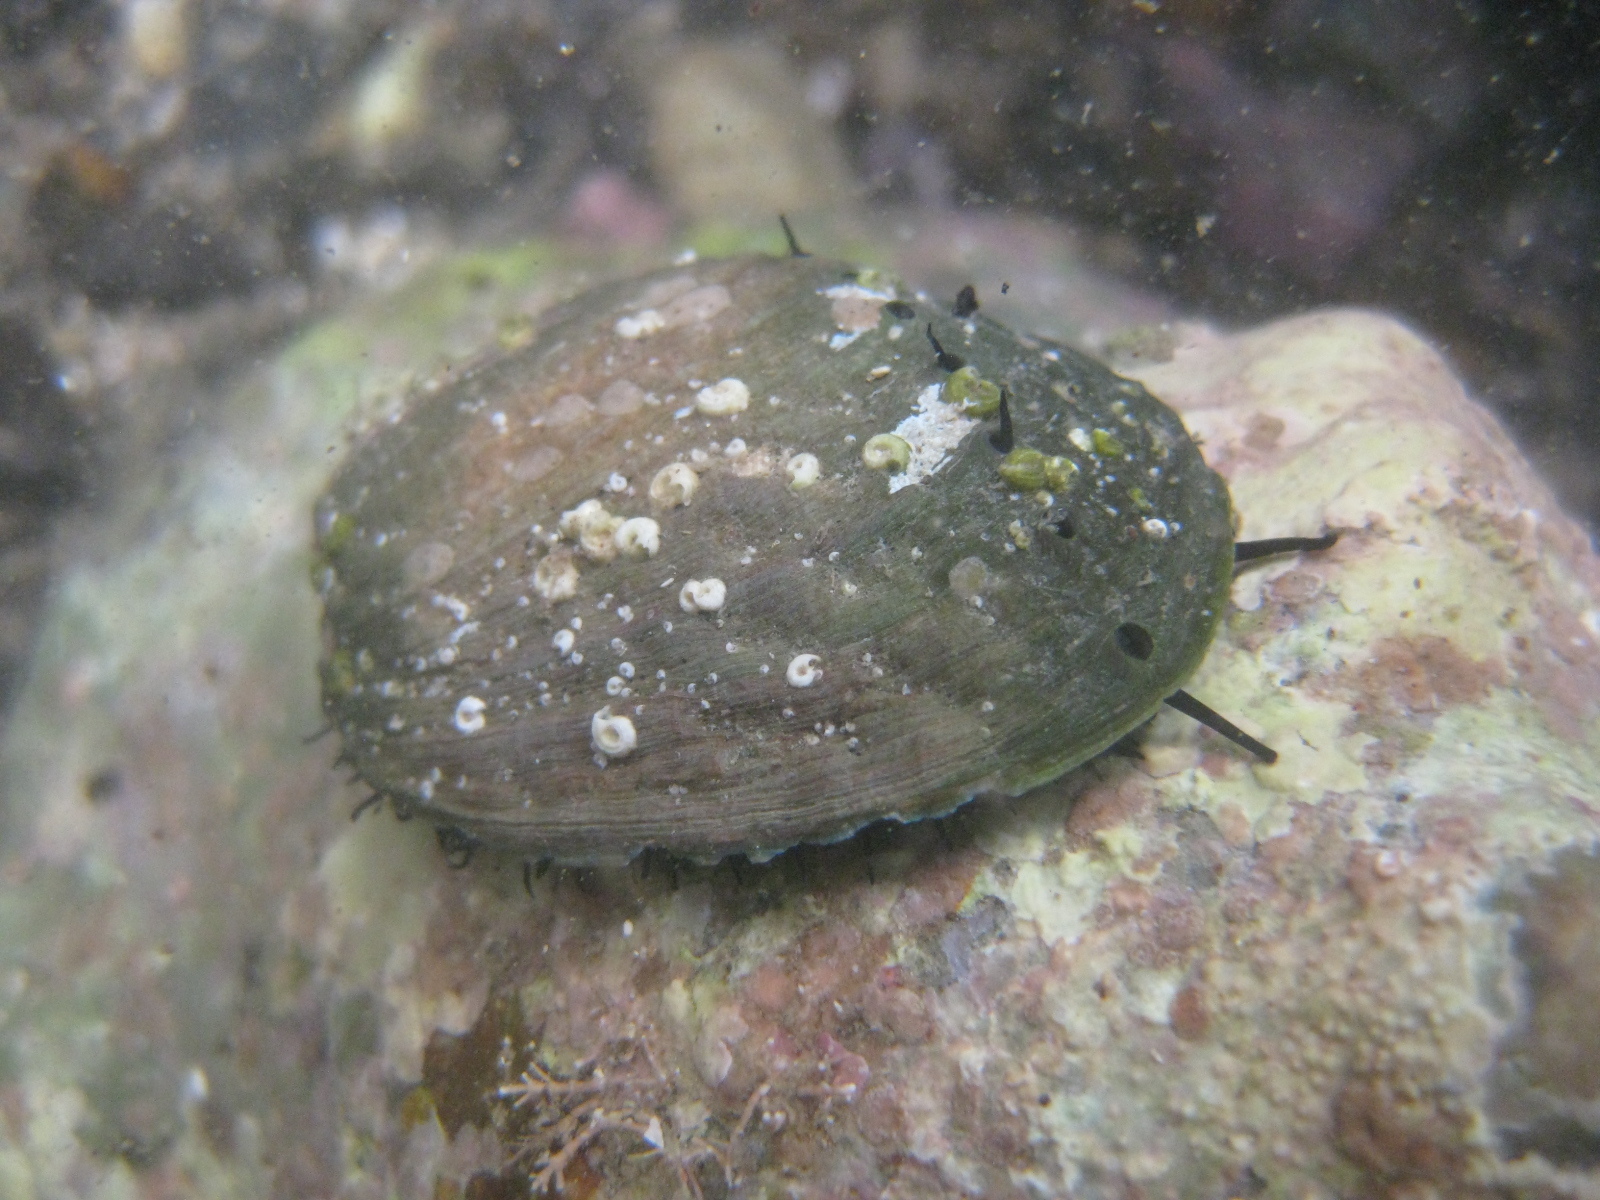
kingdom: Animalia
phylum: Mollusca
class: Gastropoda
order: Lepetellida
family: Haliotidae
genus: Haliotis
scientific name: Haliotis iris
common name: Abalone
